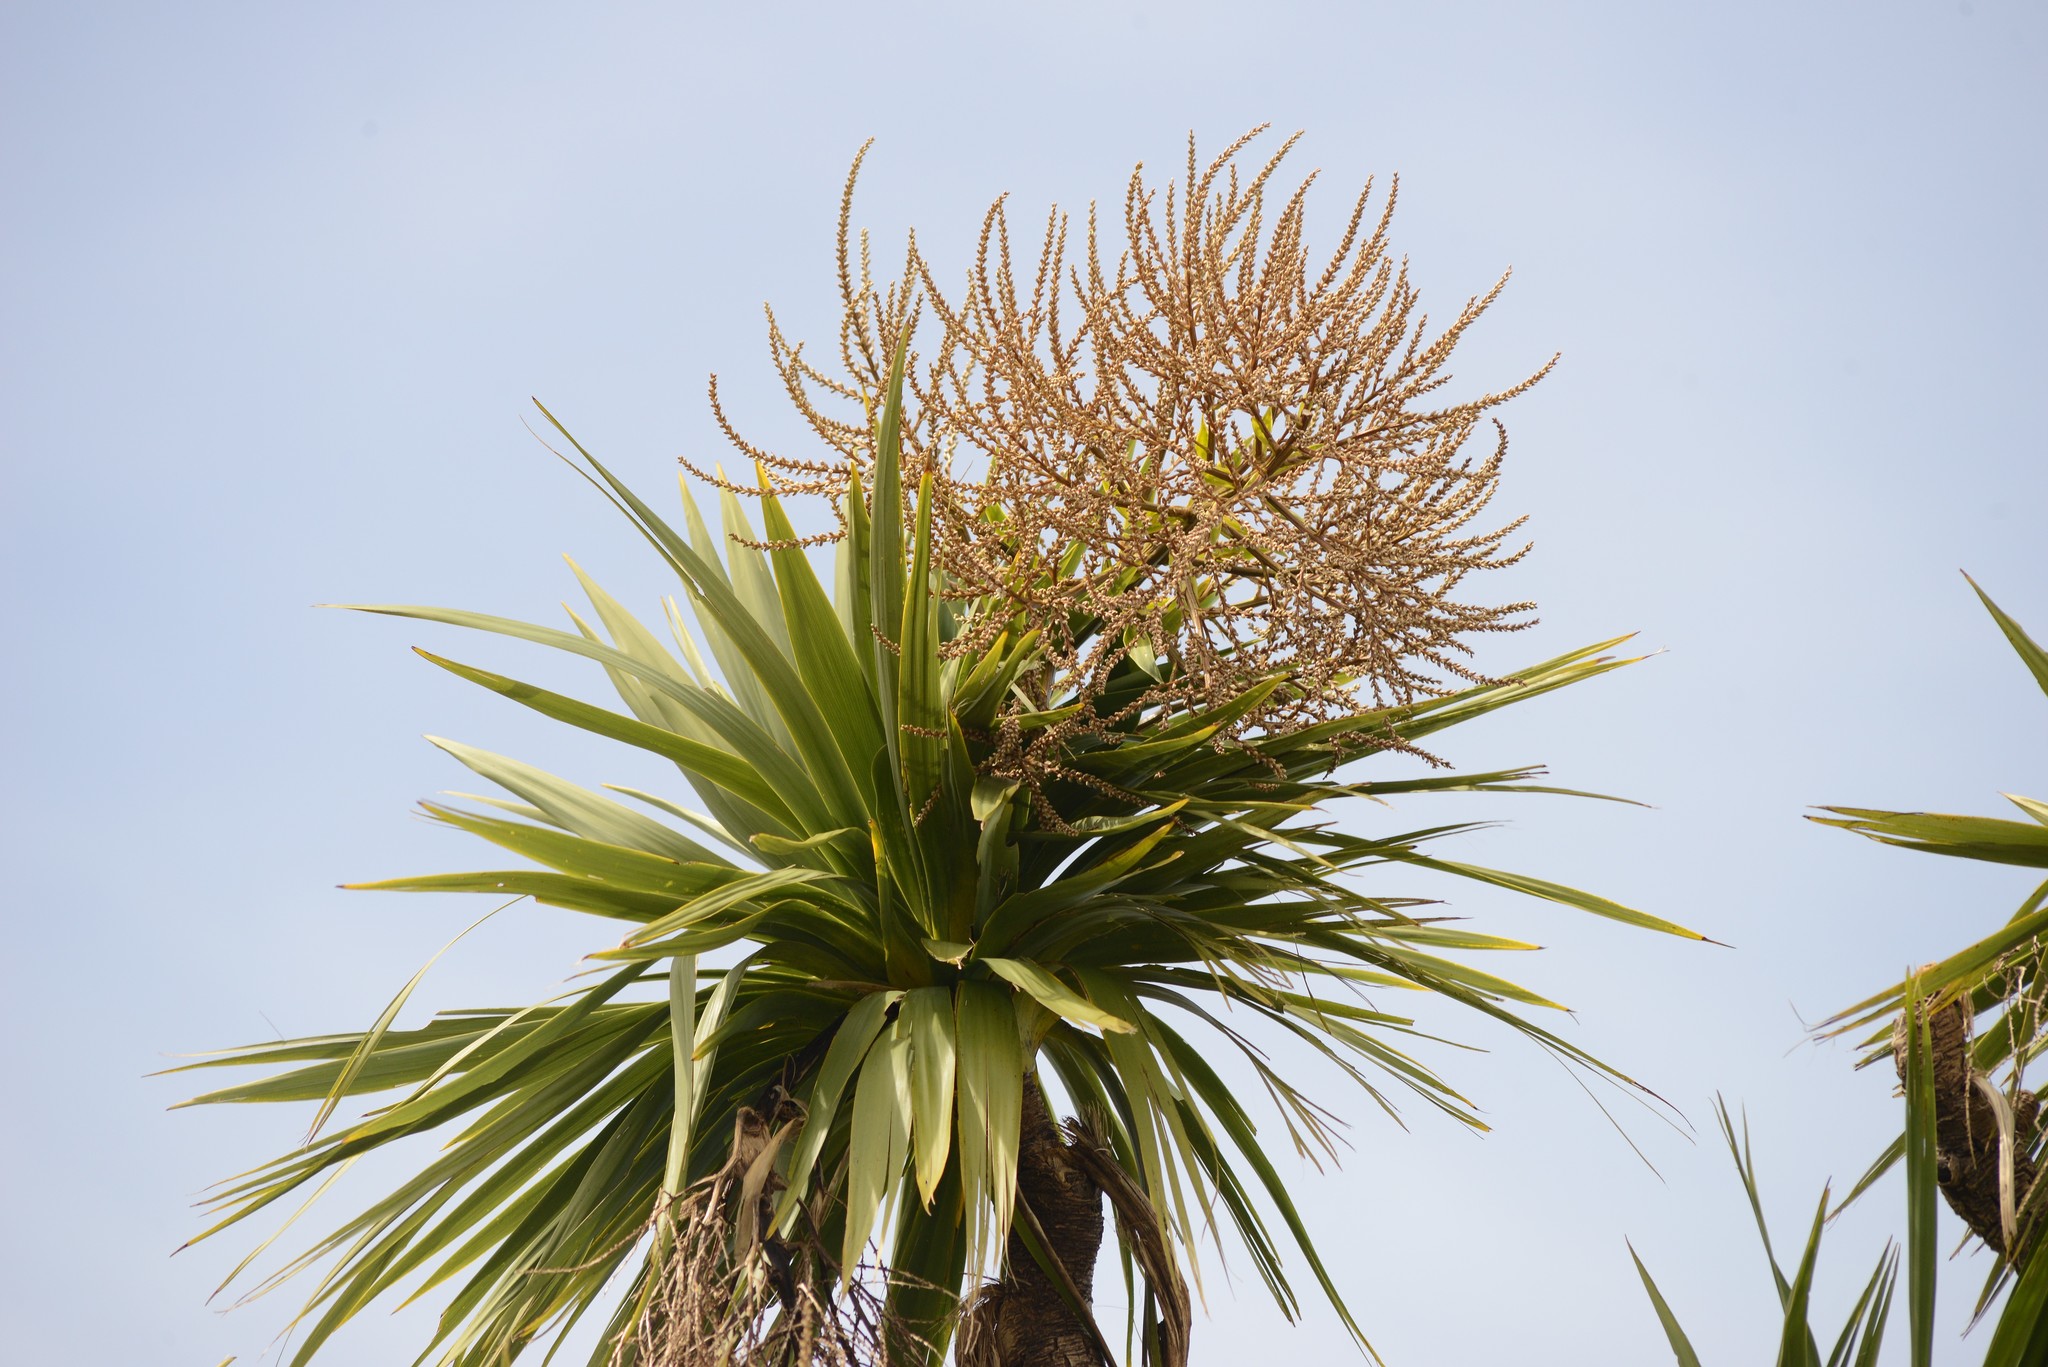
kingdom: Plantae
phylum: Tracheophyta
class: Liliopsida
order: Asparagales
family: Asparagaceae
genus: Cordyline
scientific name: Cordyline australis
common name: Cabbage-palm
